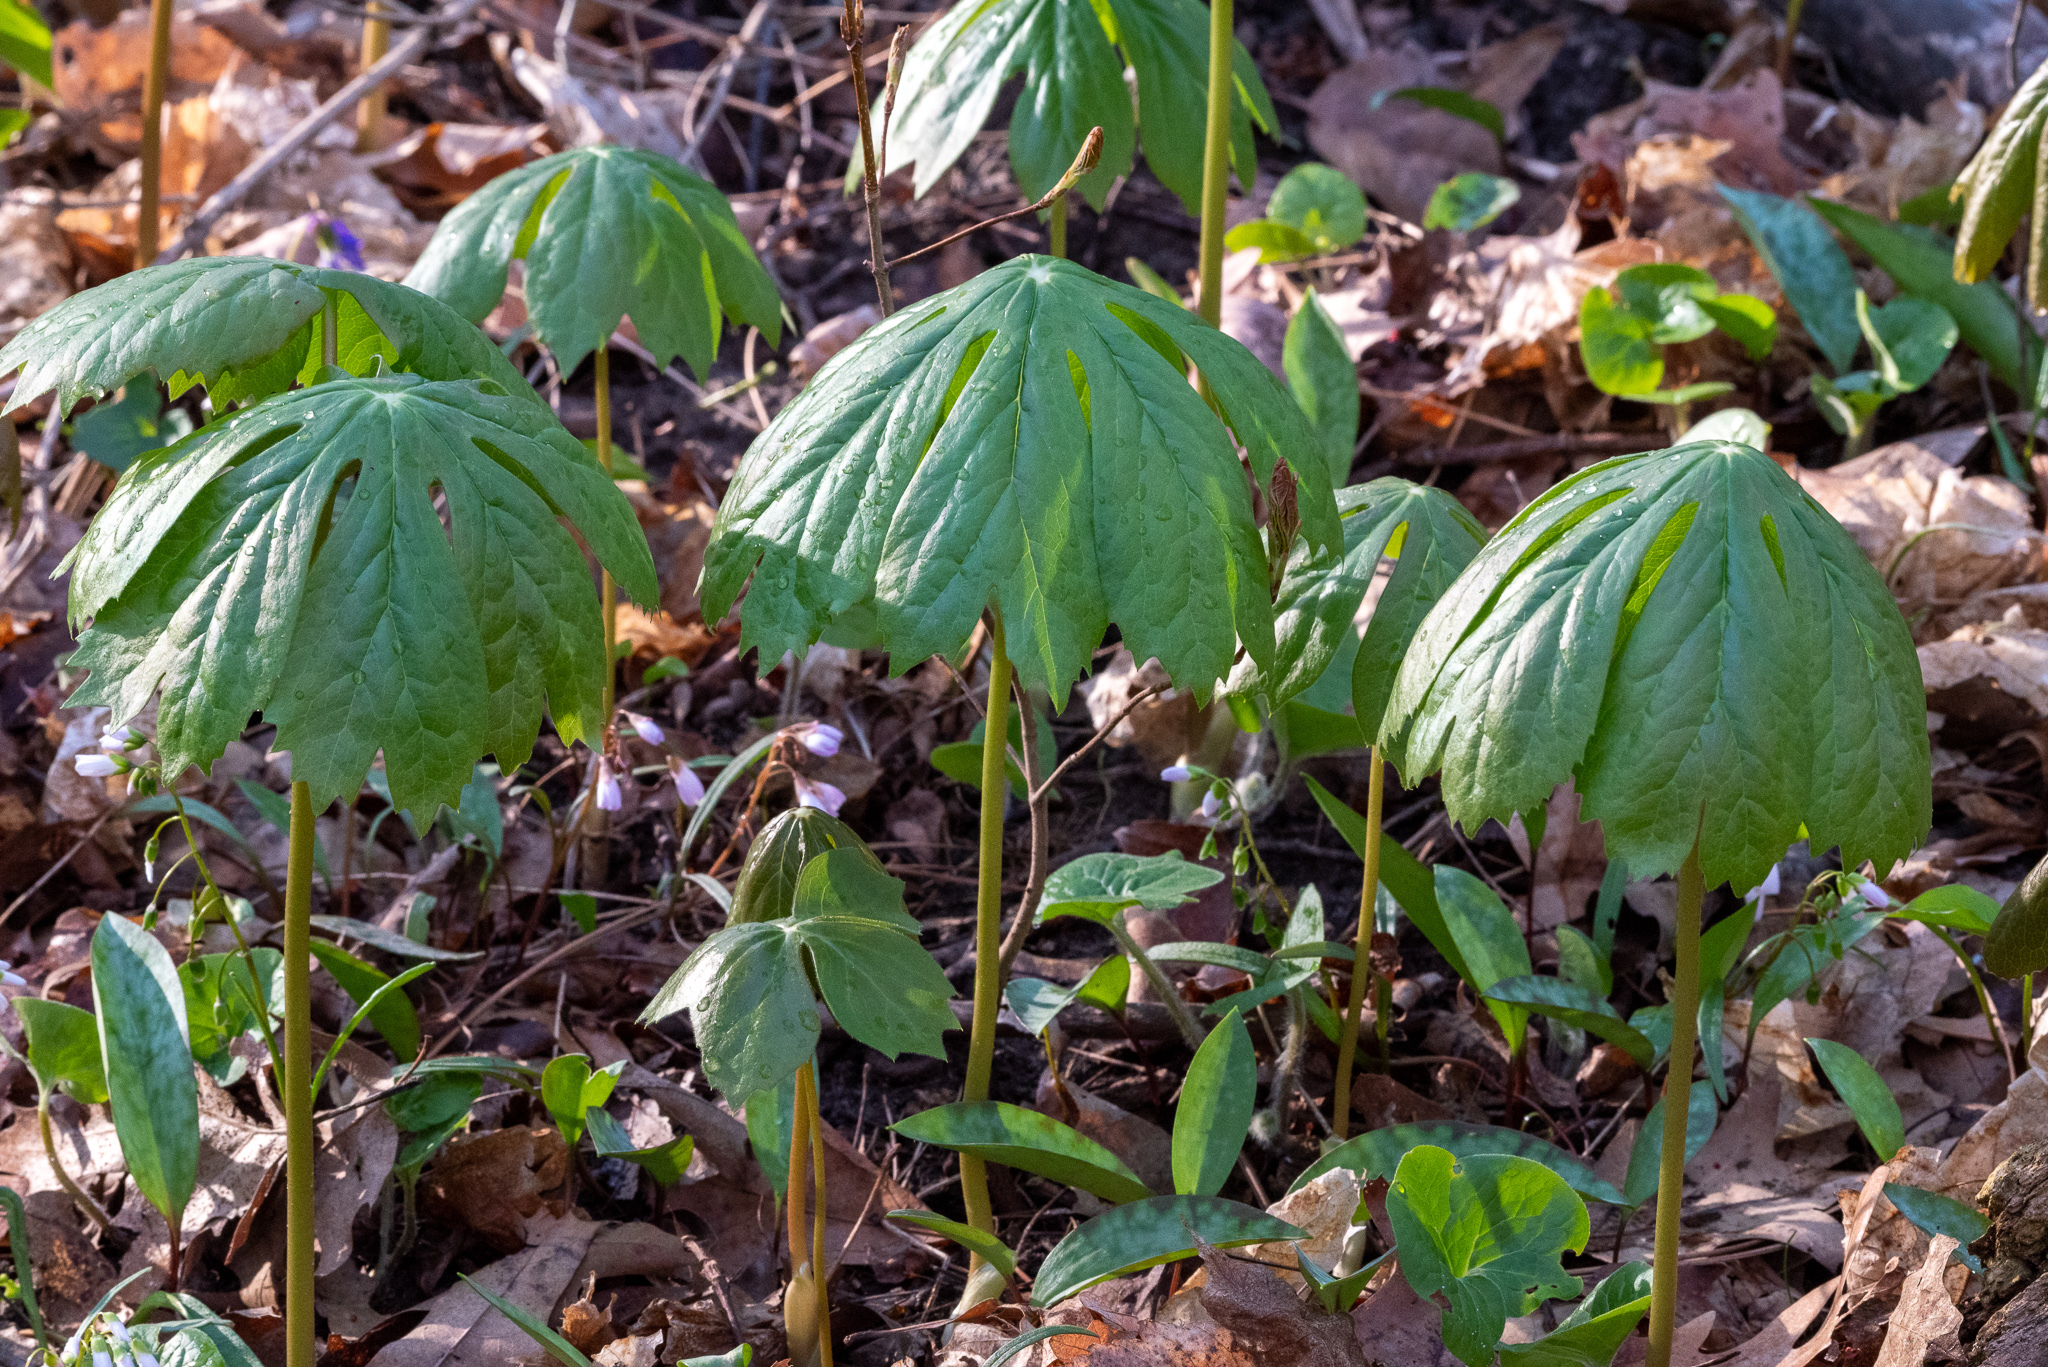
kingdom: Plantae
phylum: Tracheophyta
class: Magnoliopsida
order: Ranunculales
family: Berberidaceae
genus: Podophyllum
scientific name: Podophyllum peltatum
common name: Wild mandrake
